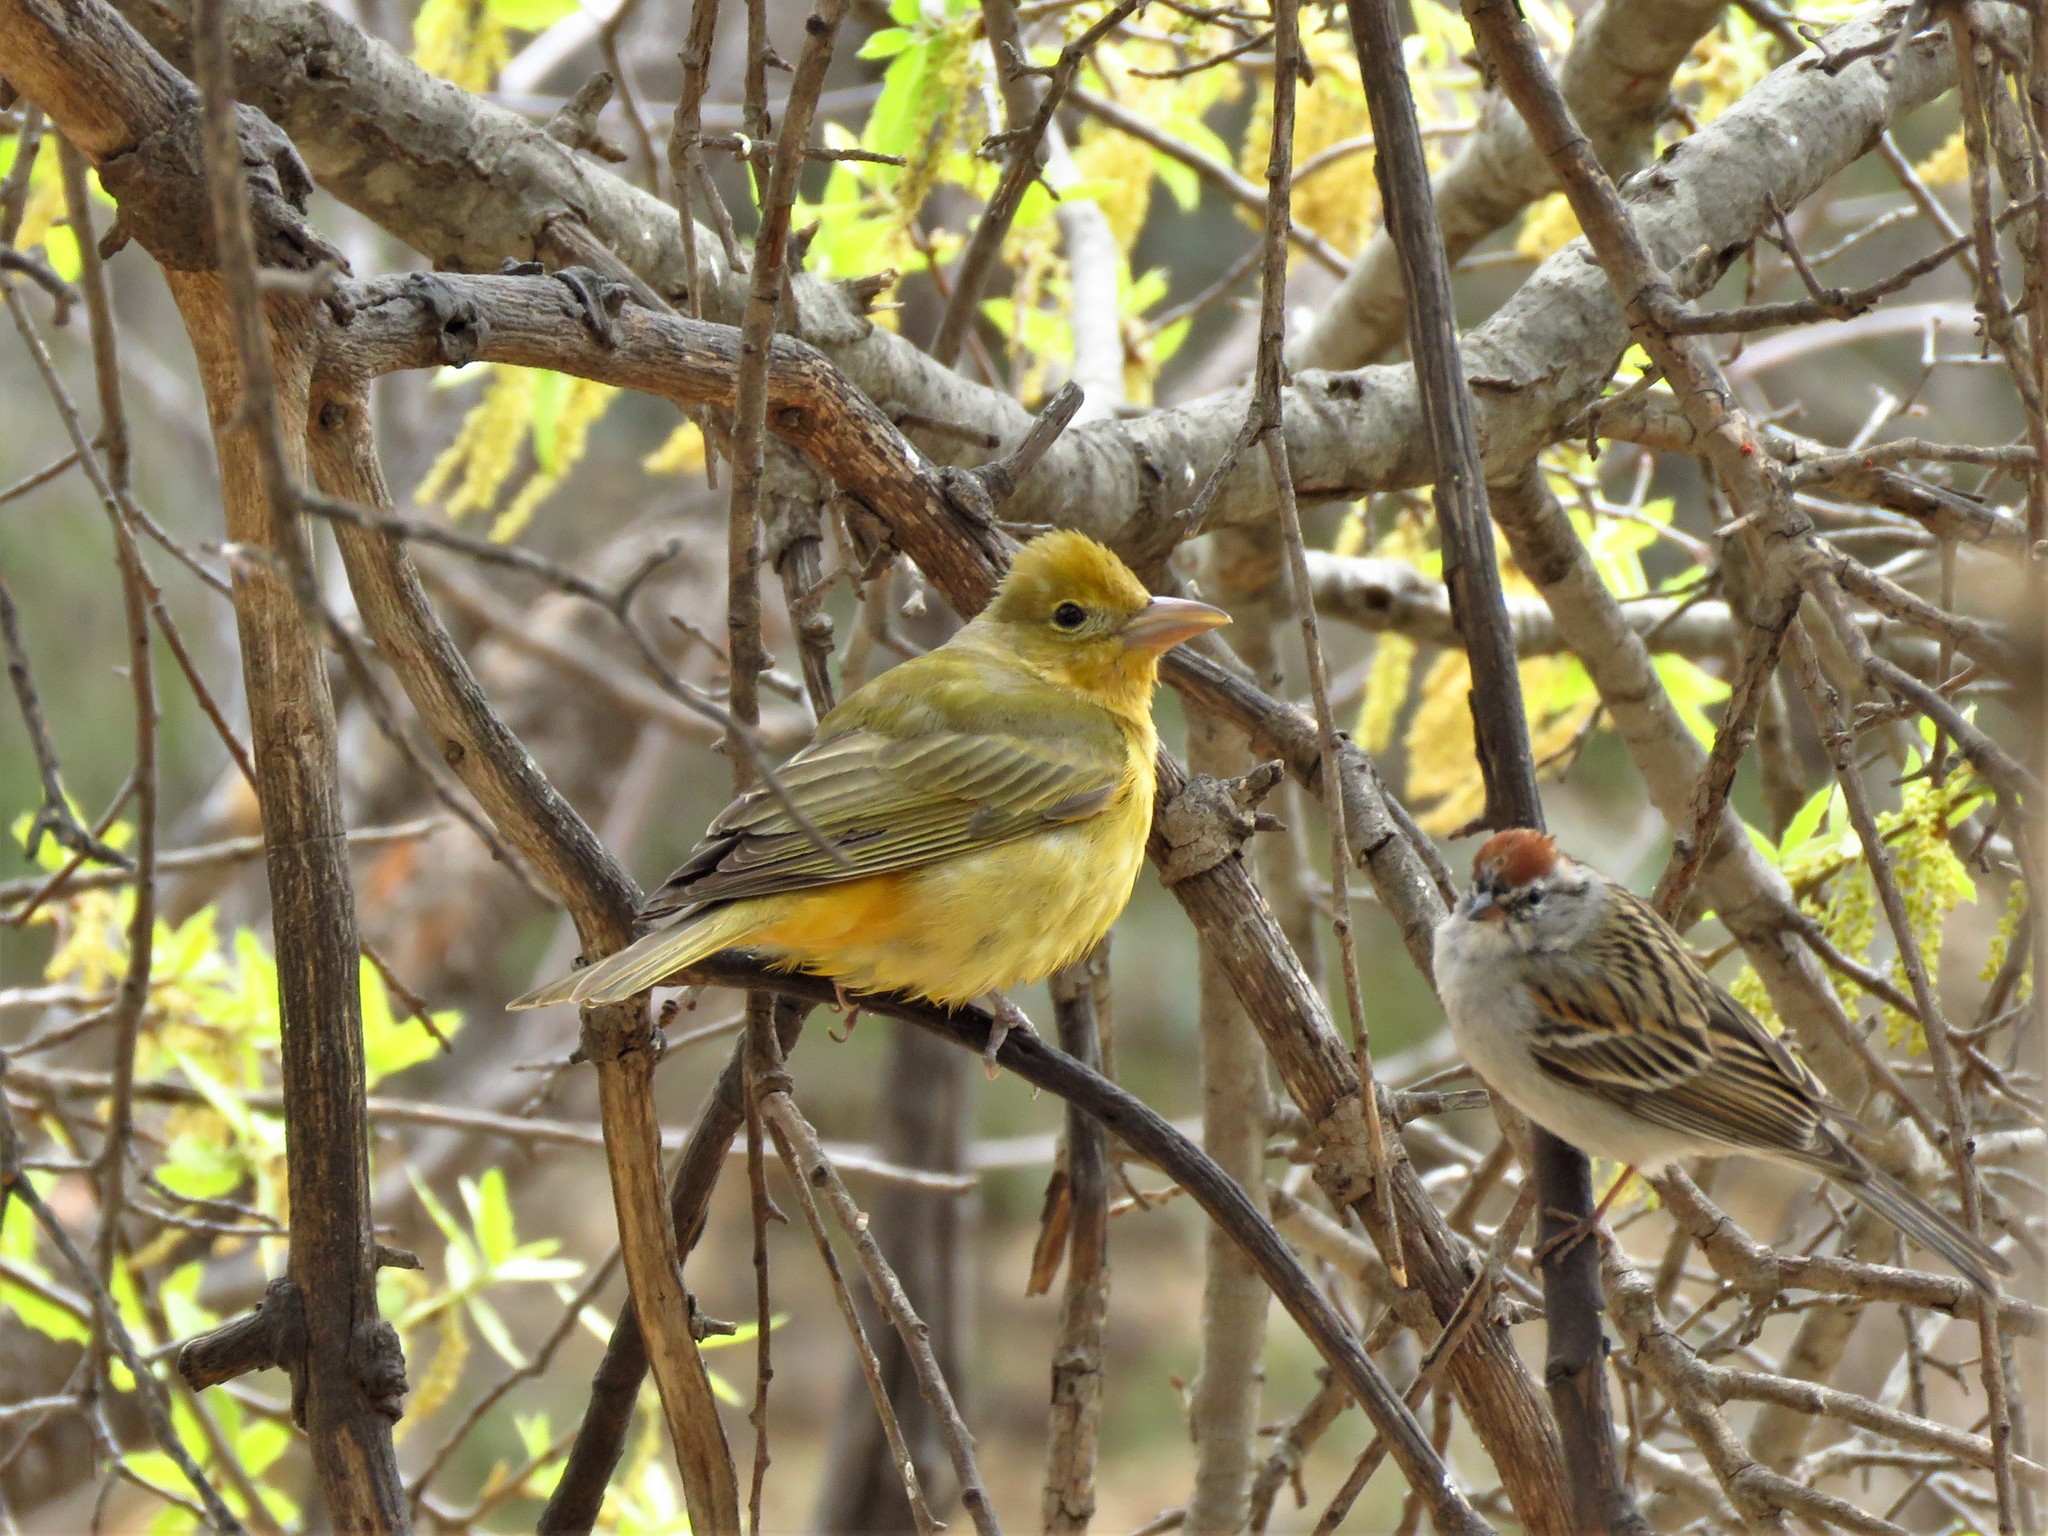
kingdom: Animalia
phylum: Chordata
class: Aves
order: Passeriformes
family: Cardinalidae
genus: Piranga
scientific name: Piranga rubra
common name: Summer tanager
